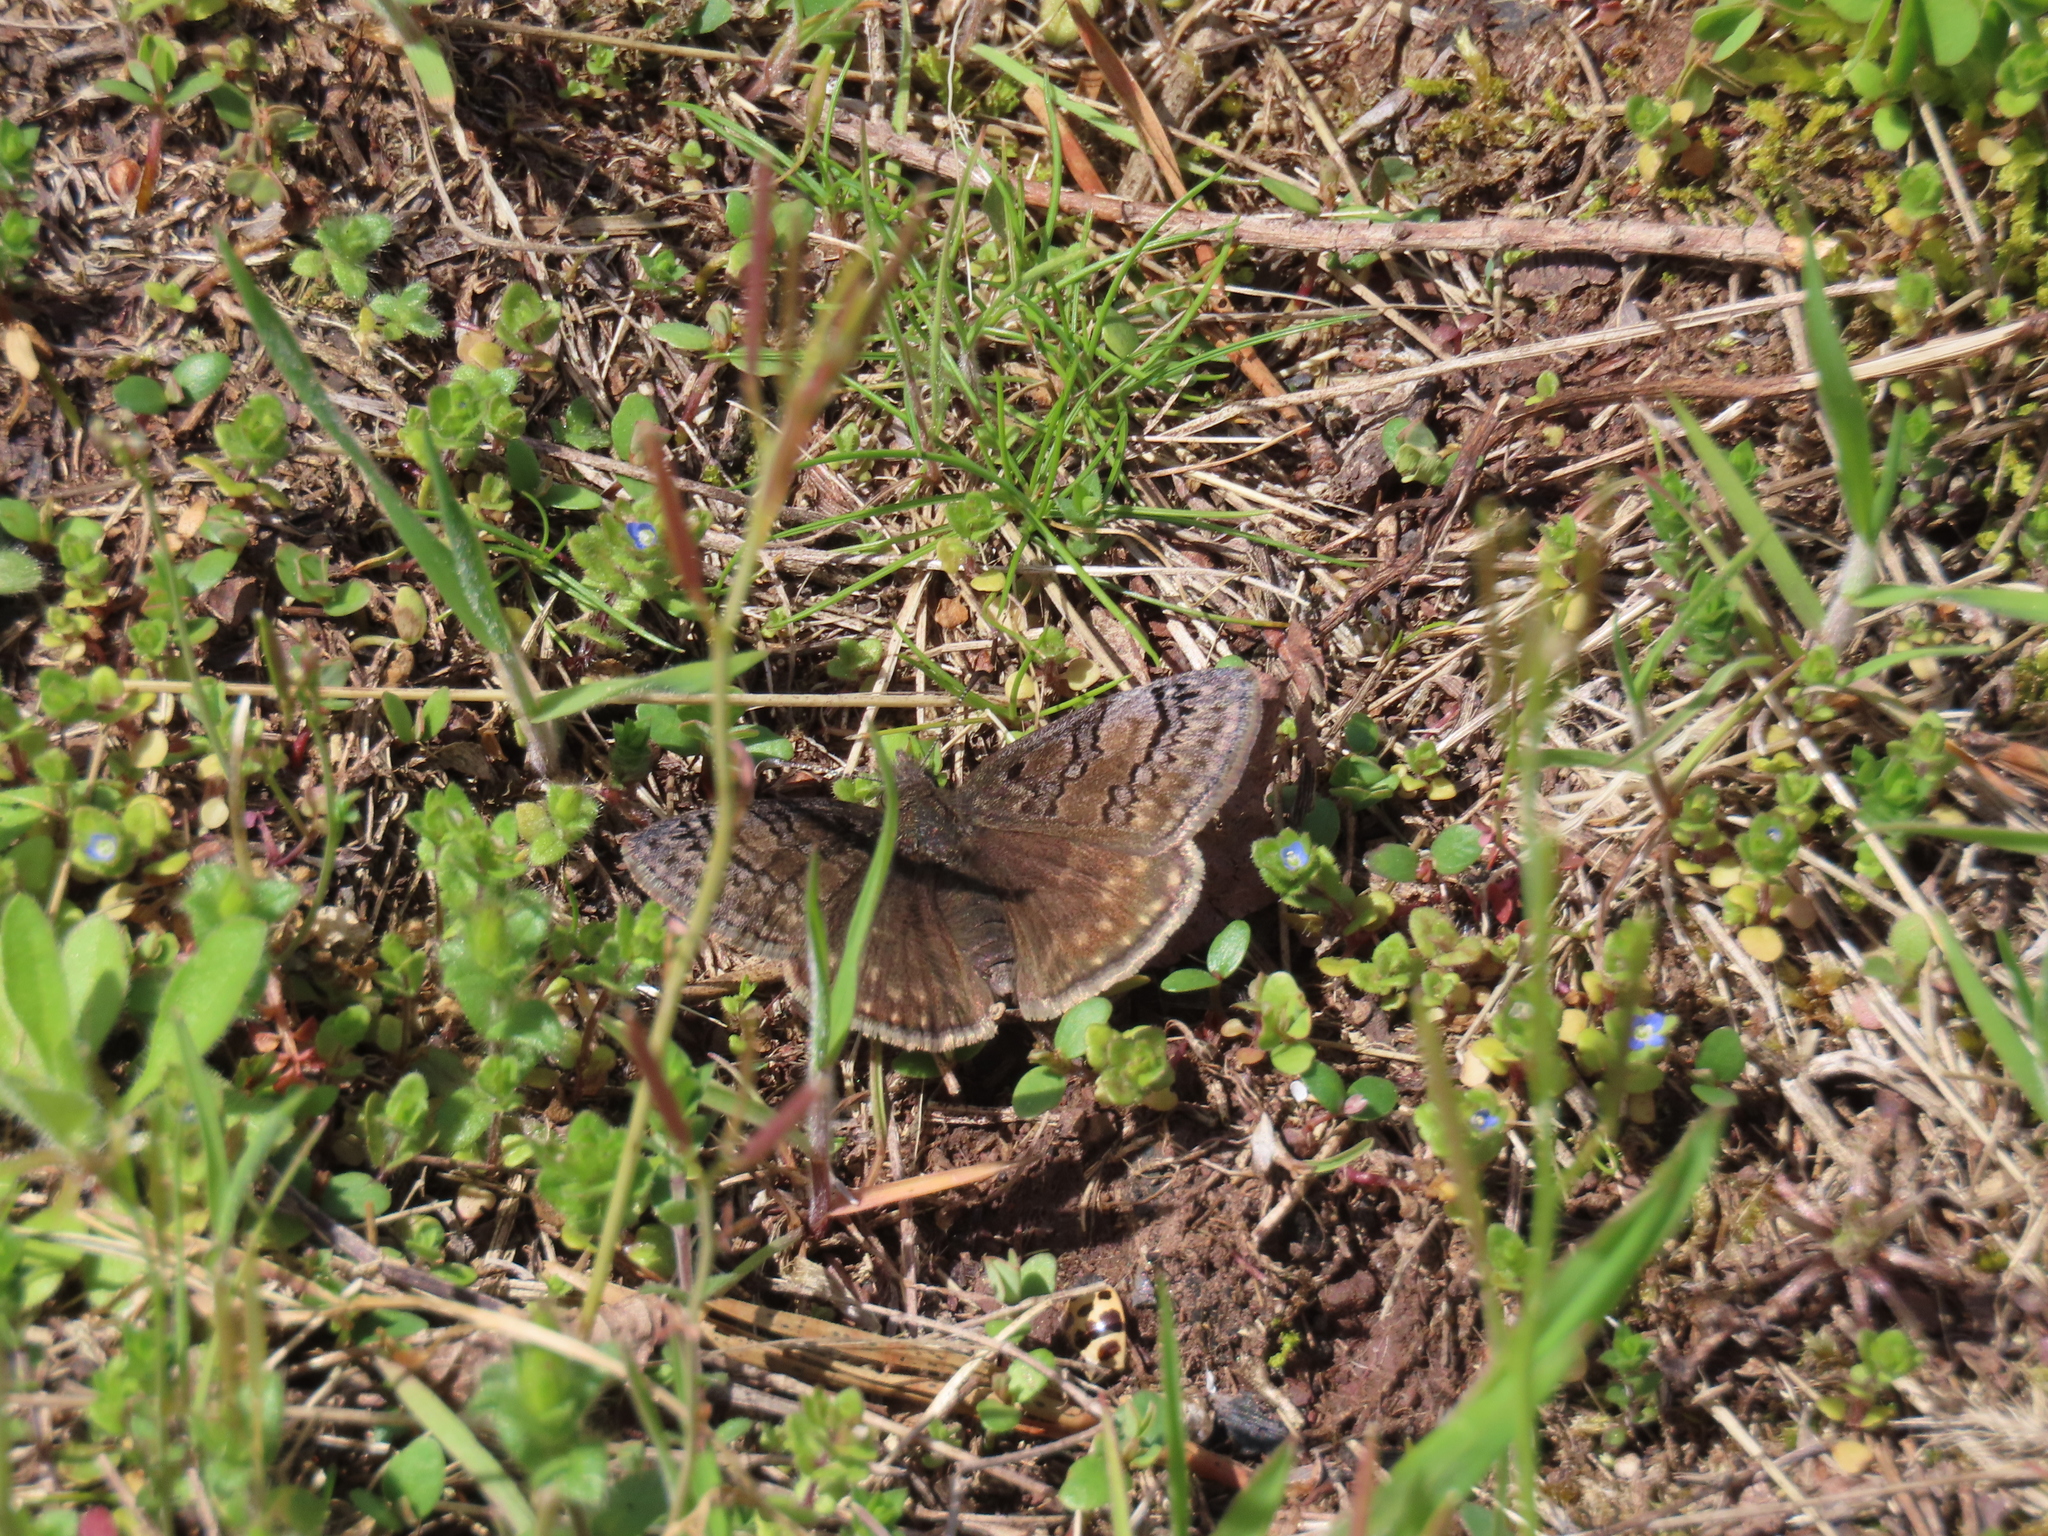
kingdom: Animalia
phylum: Arthropoda
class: Insecta
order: Lepidoptera
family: Hesperiidae
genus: Erynnis
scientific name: Erynnis brizo
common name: Sleepy duskywing
